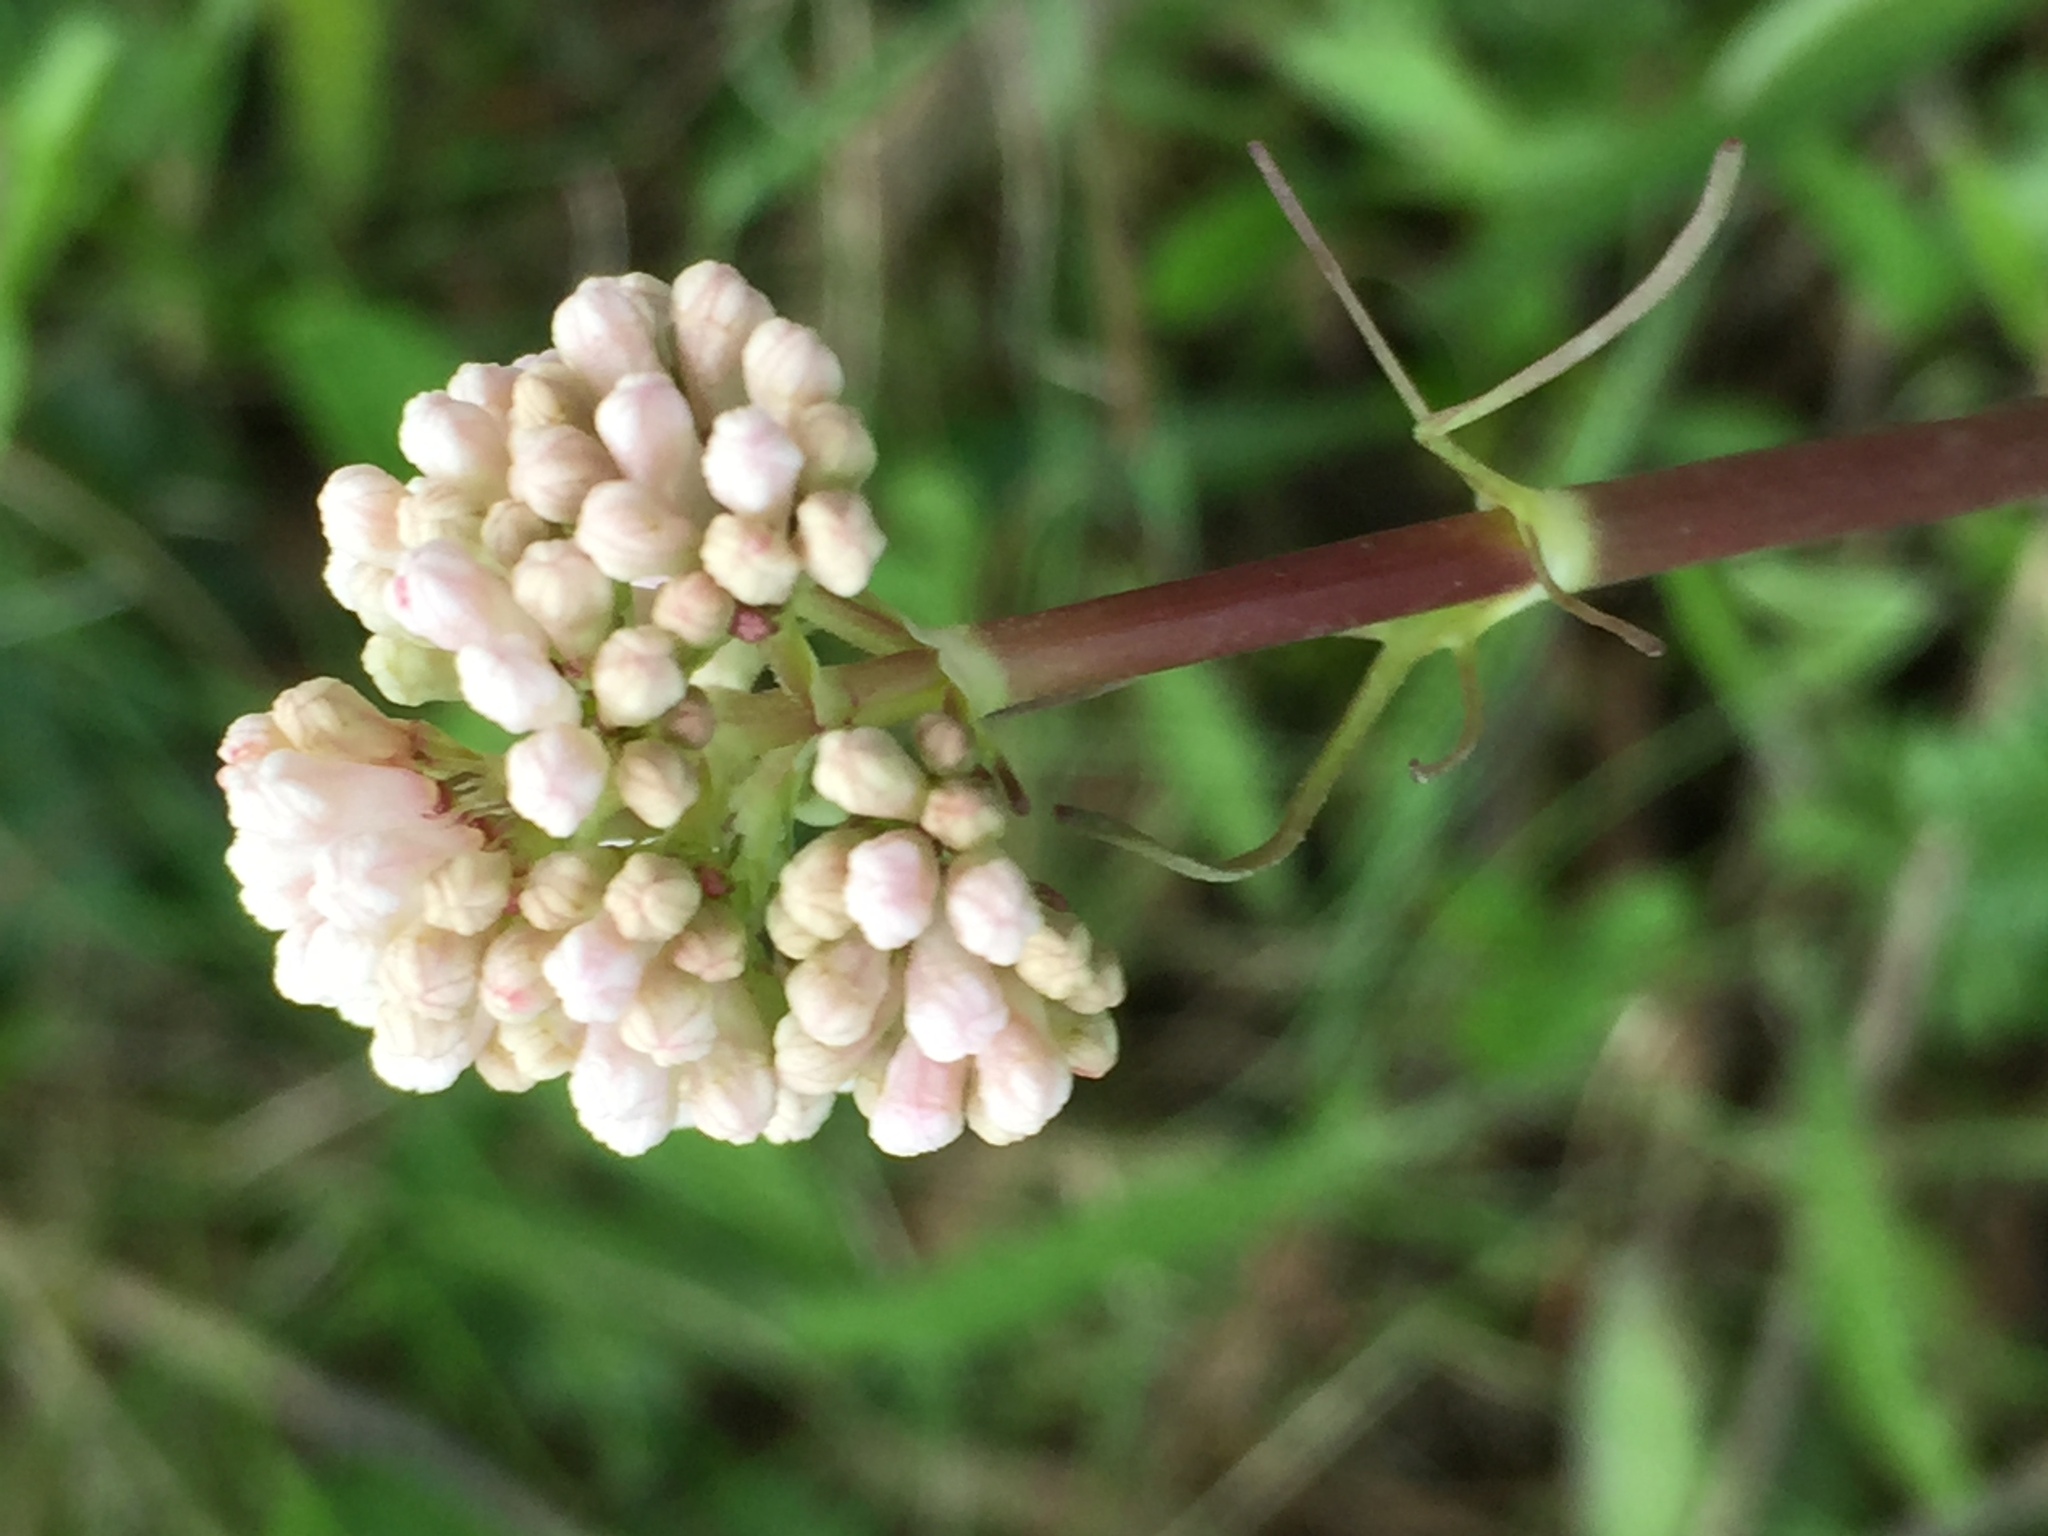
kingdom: Plantae
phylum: Tracheophyta
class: Magnoliopsida
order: Dipsacales
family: Caprifoliaceae
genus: Valeriana
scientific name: Valeriana tuberosa
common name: Tuberous valerian
